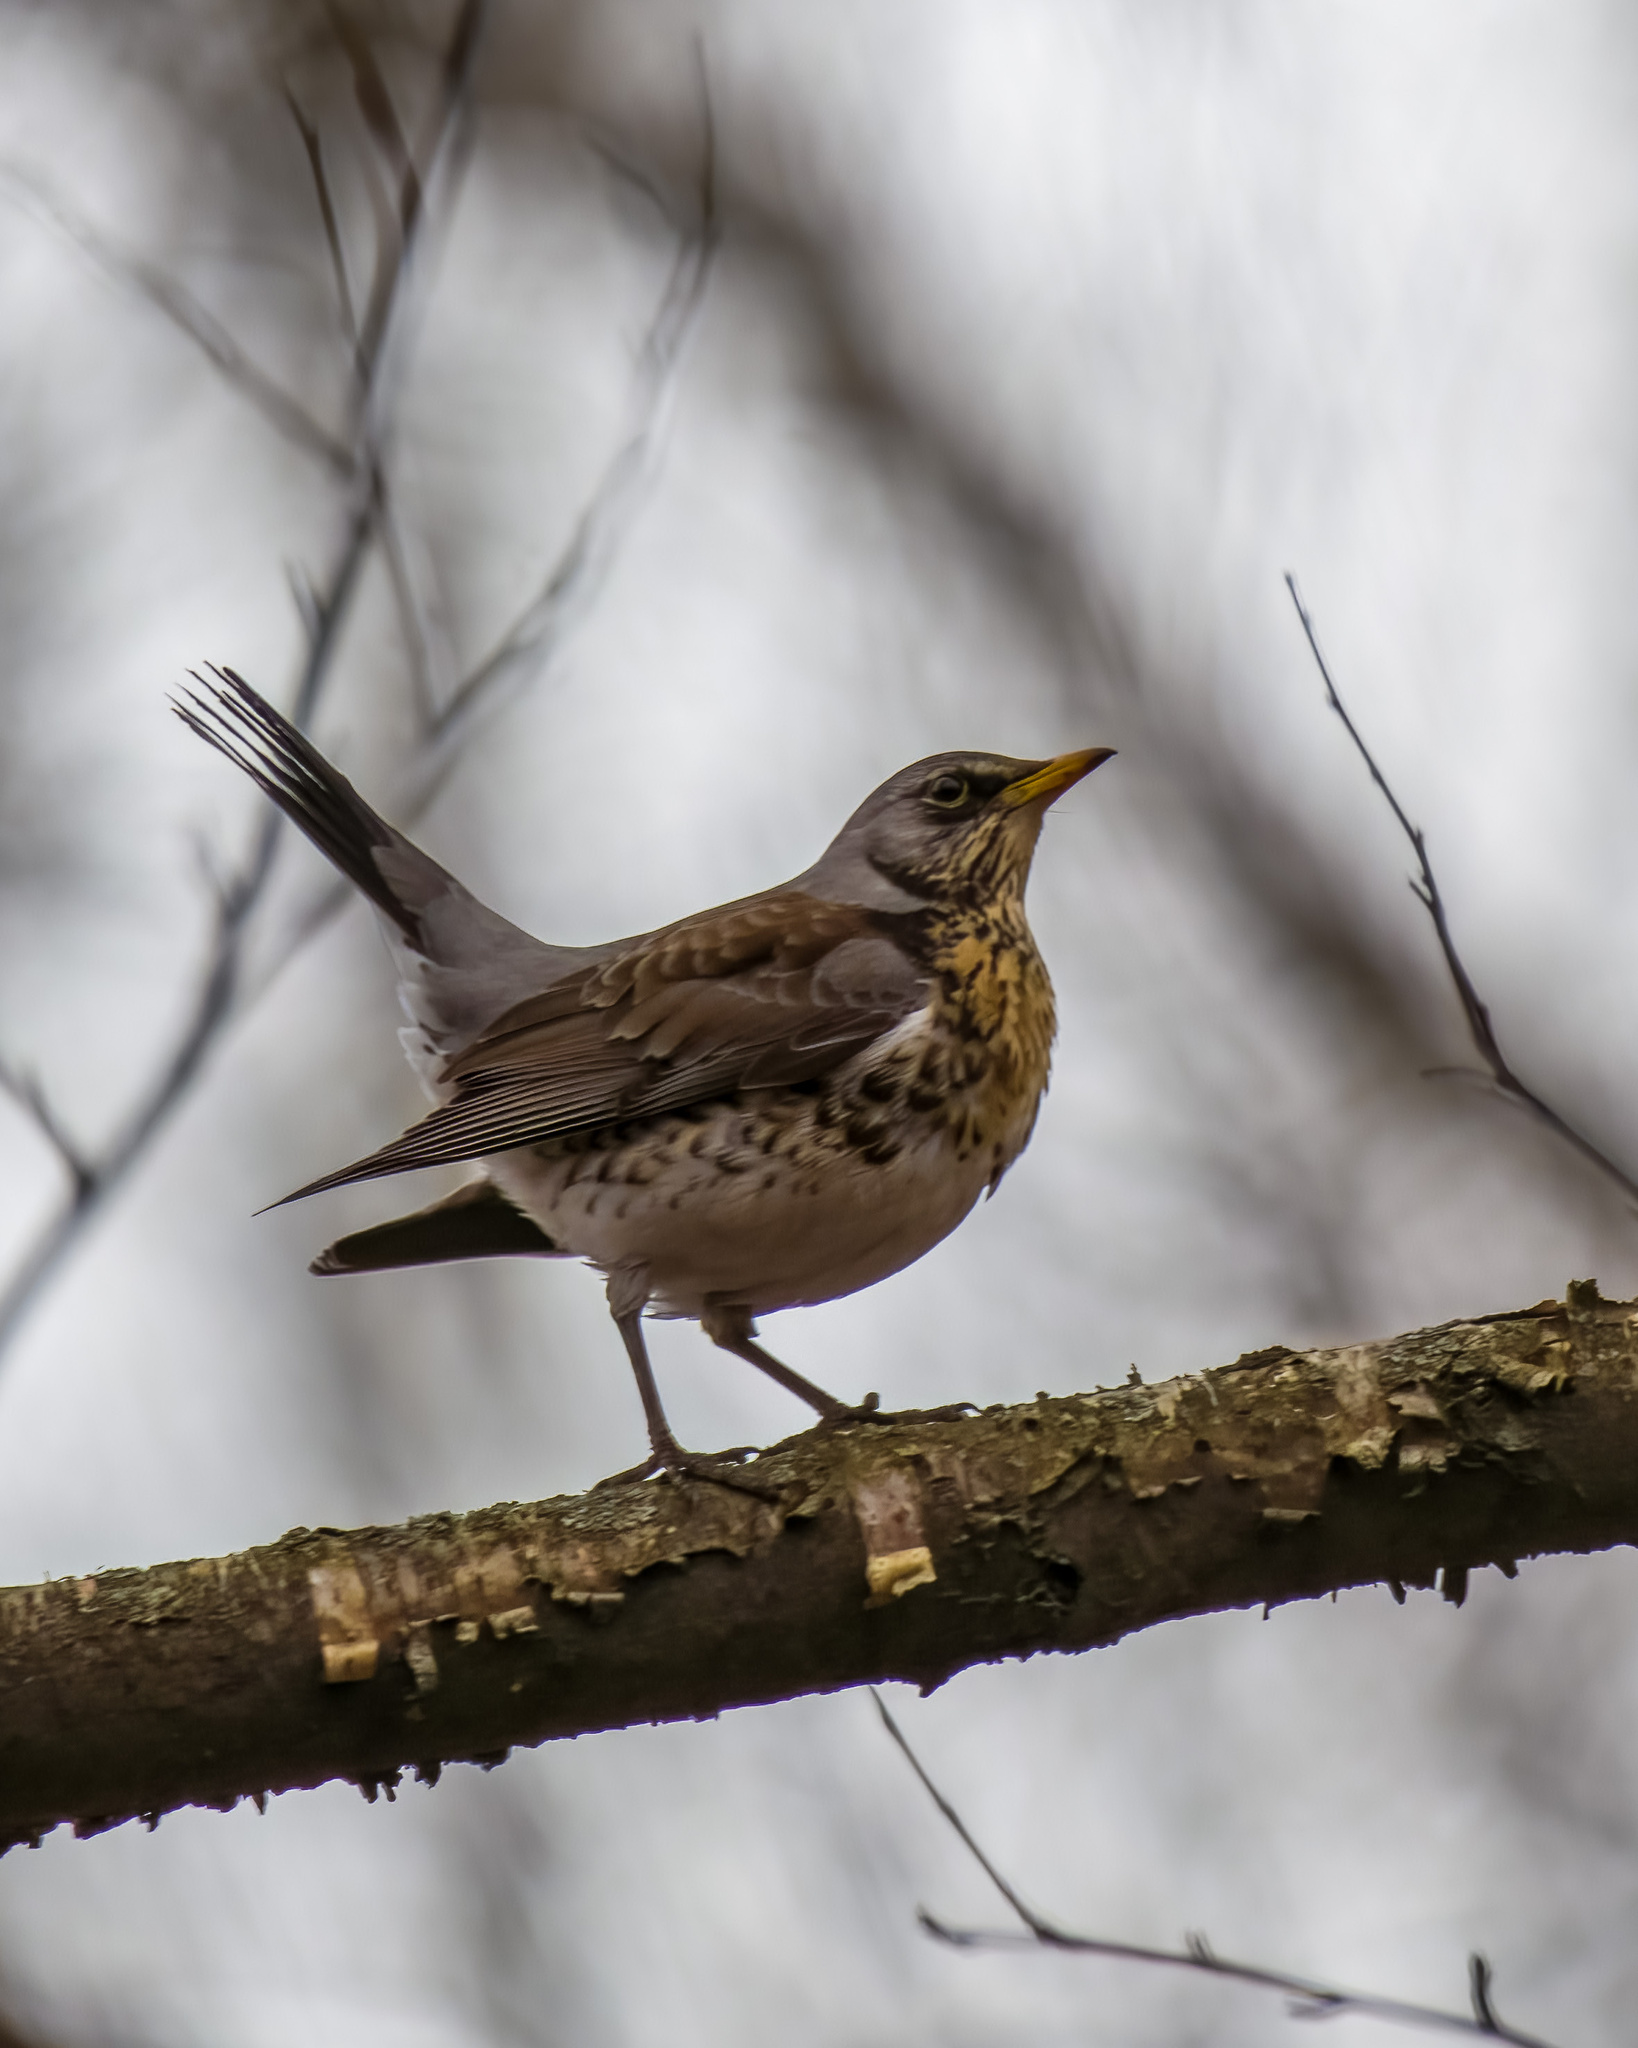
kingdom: Animalia
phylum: Chordata
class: Aves
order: Passeriformes
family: Turdidae
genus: Turdus
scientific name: Turdus pilaris
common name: Fieldfare
